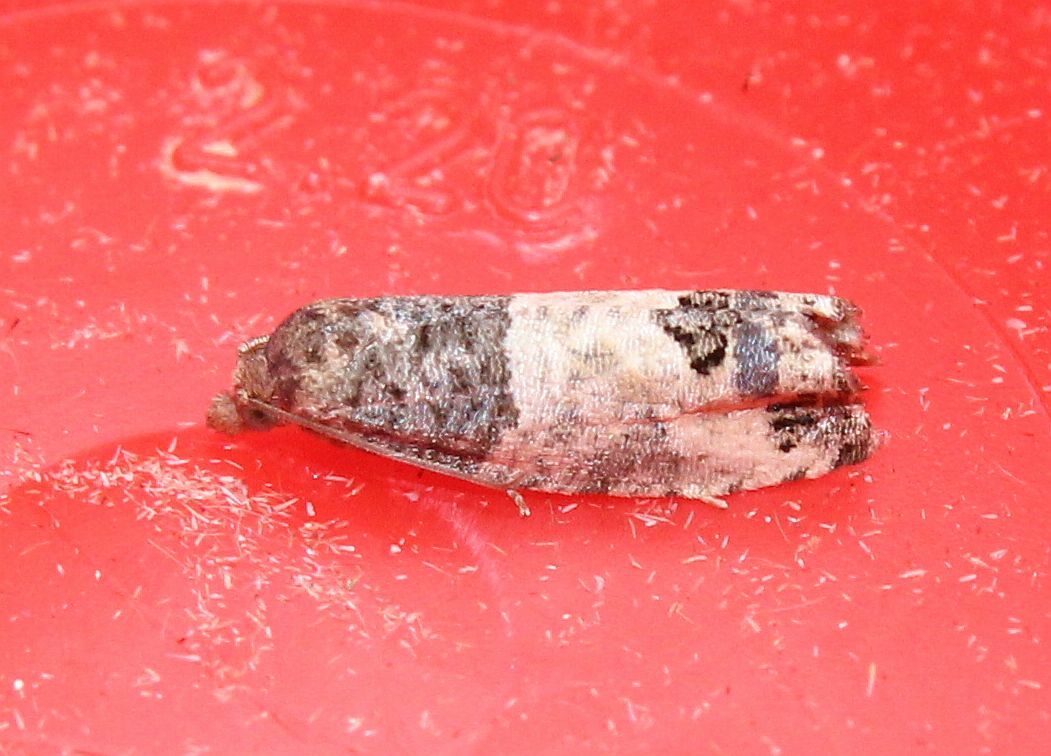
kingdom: Animalia
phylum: Arthropoda
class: Insecta
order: Lepidoptera
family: Tortricidae
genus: Spilonota
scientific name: Spilonota ocellana
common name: Bud moth
